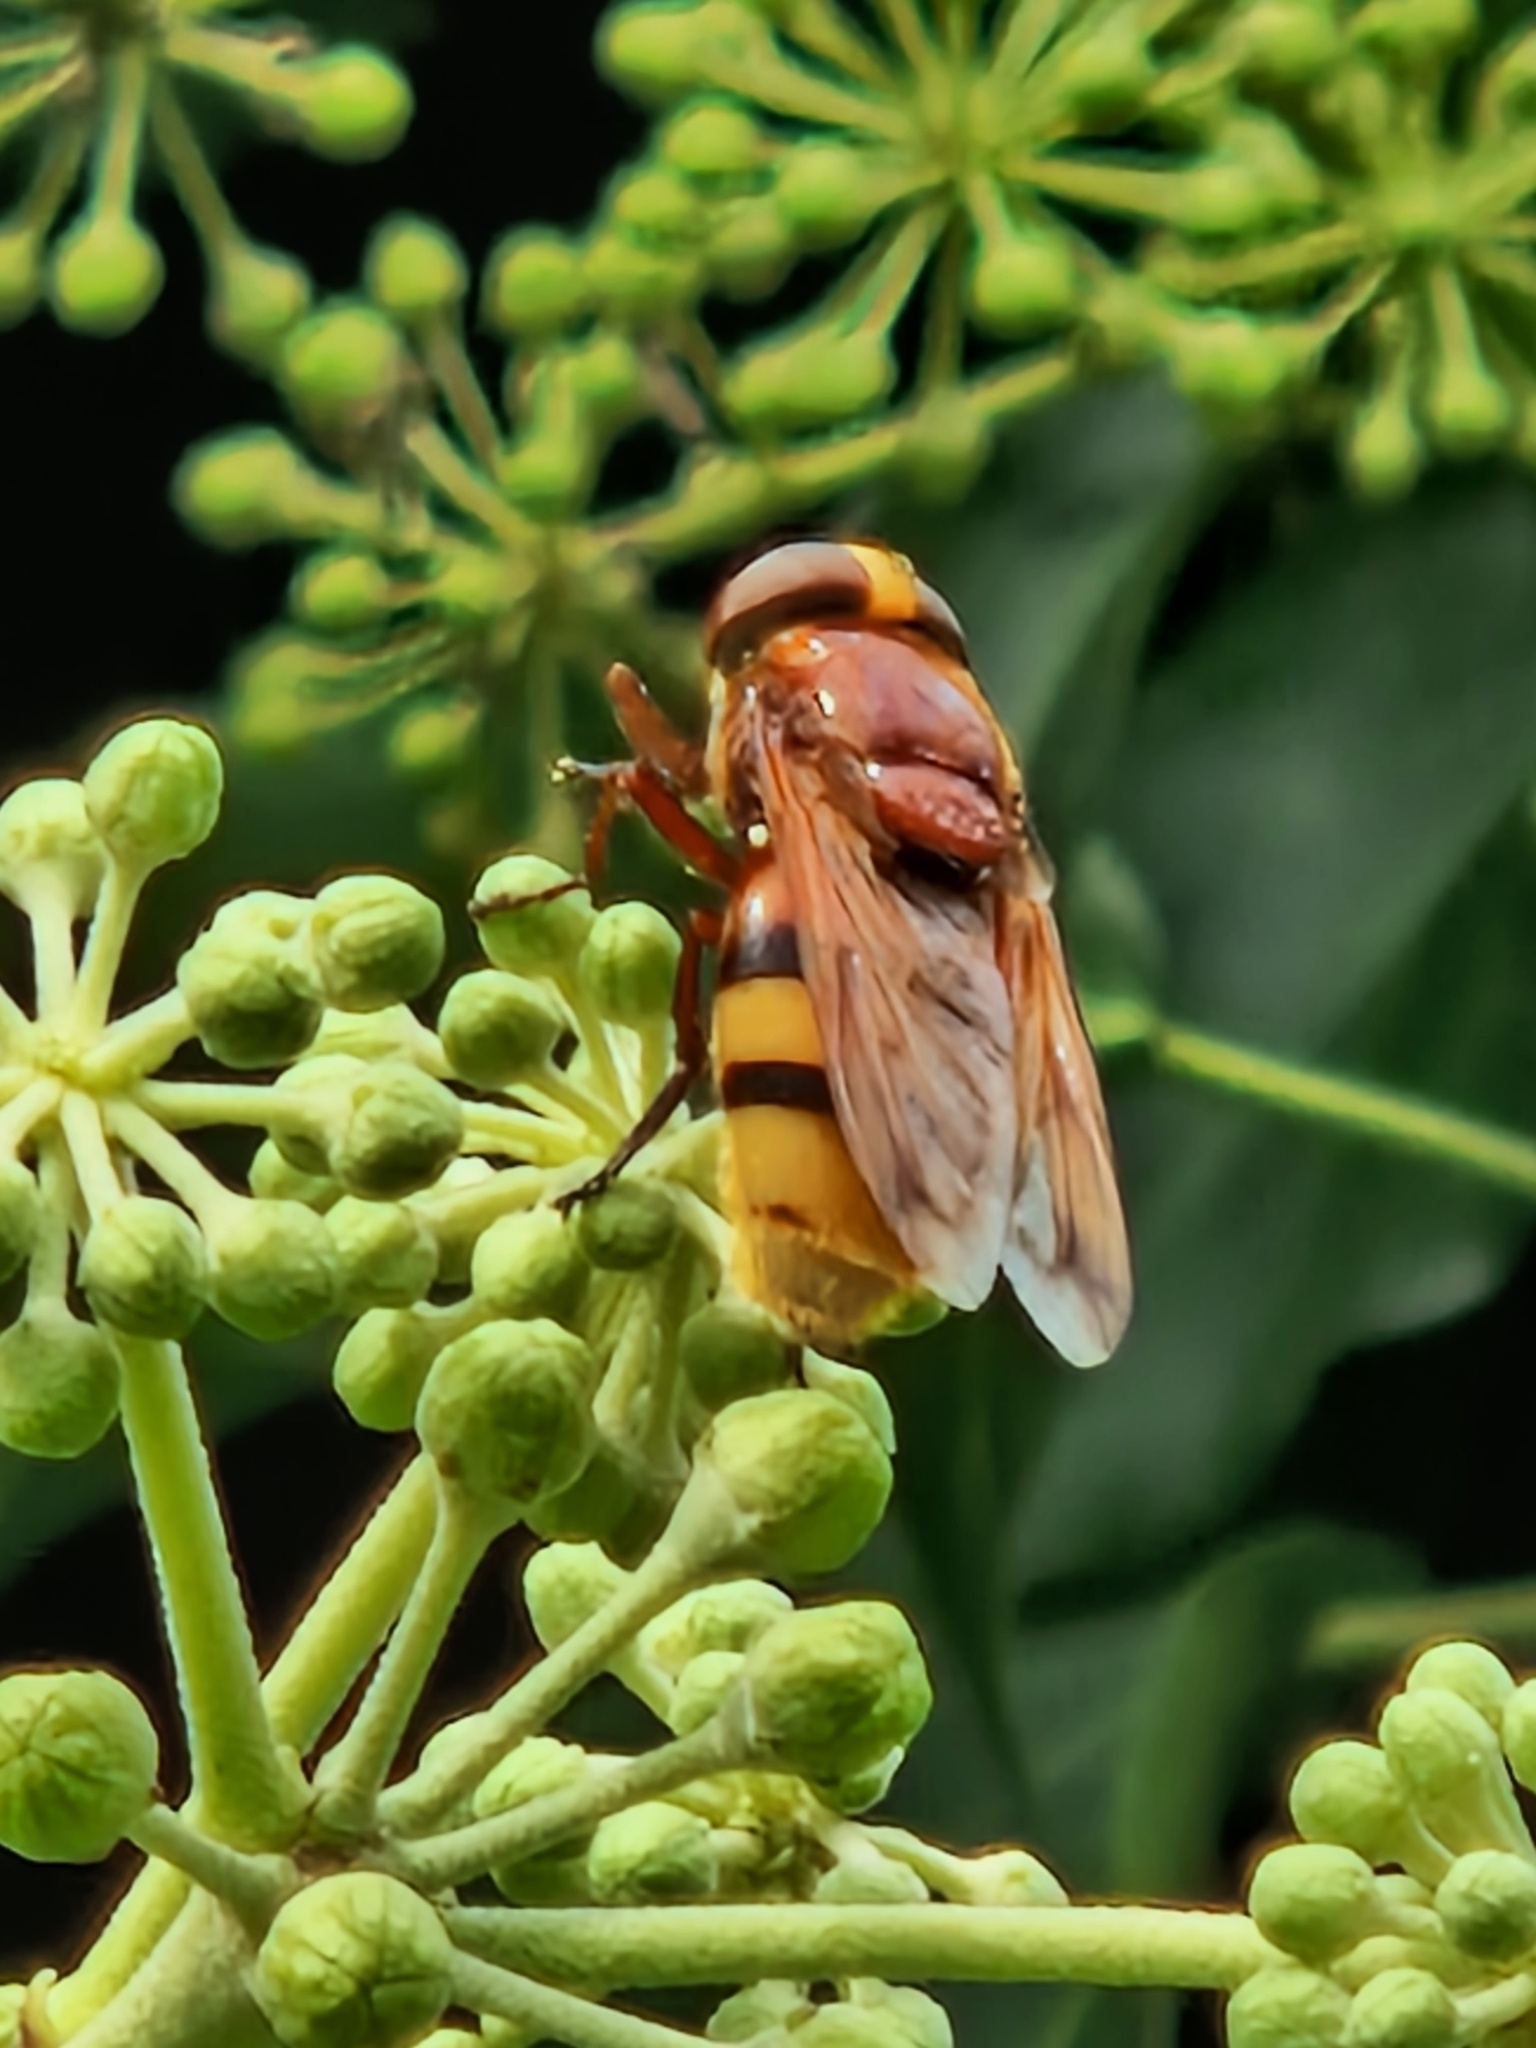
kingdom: Animalia
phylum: Arthropoda
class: Insecta
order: Diptera
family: Syrphidae
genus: Volucella
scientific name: Volucella zonaria
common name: Hornet hoverfly
